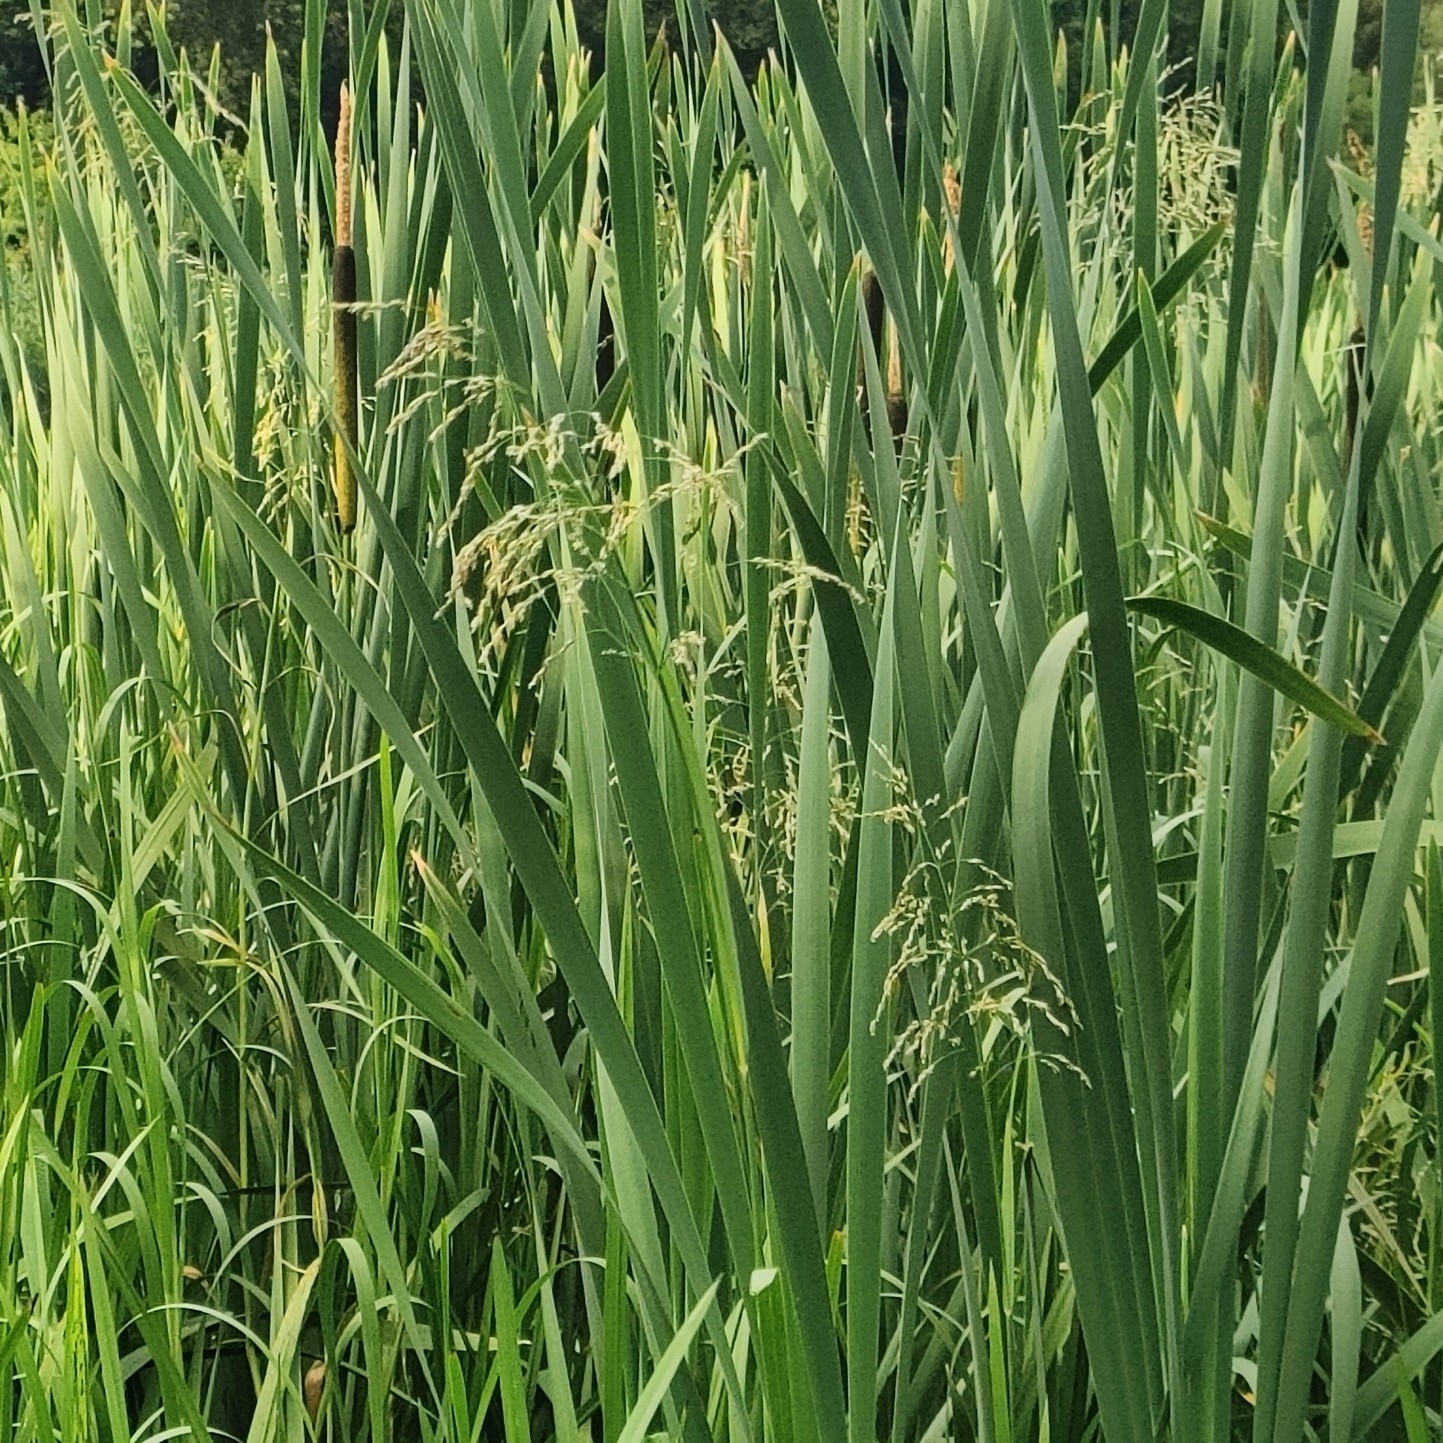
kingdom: Plantae
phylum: Tracheophyta
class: Liliopsida
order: Poales
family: Poaceae
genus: Glyceria
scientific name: Glyceria maxima
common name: Reed mannagrass
